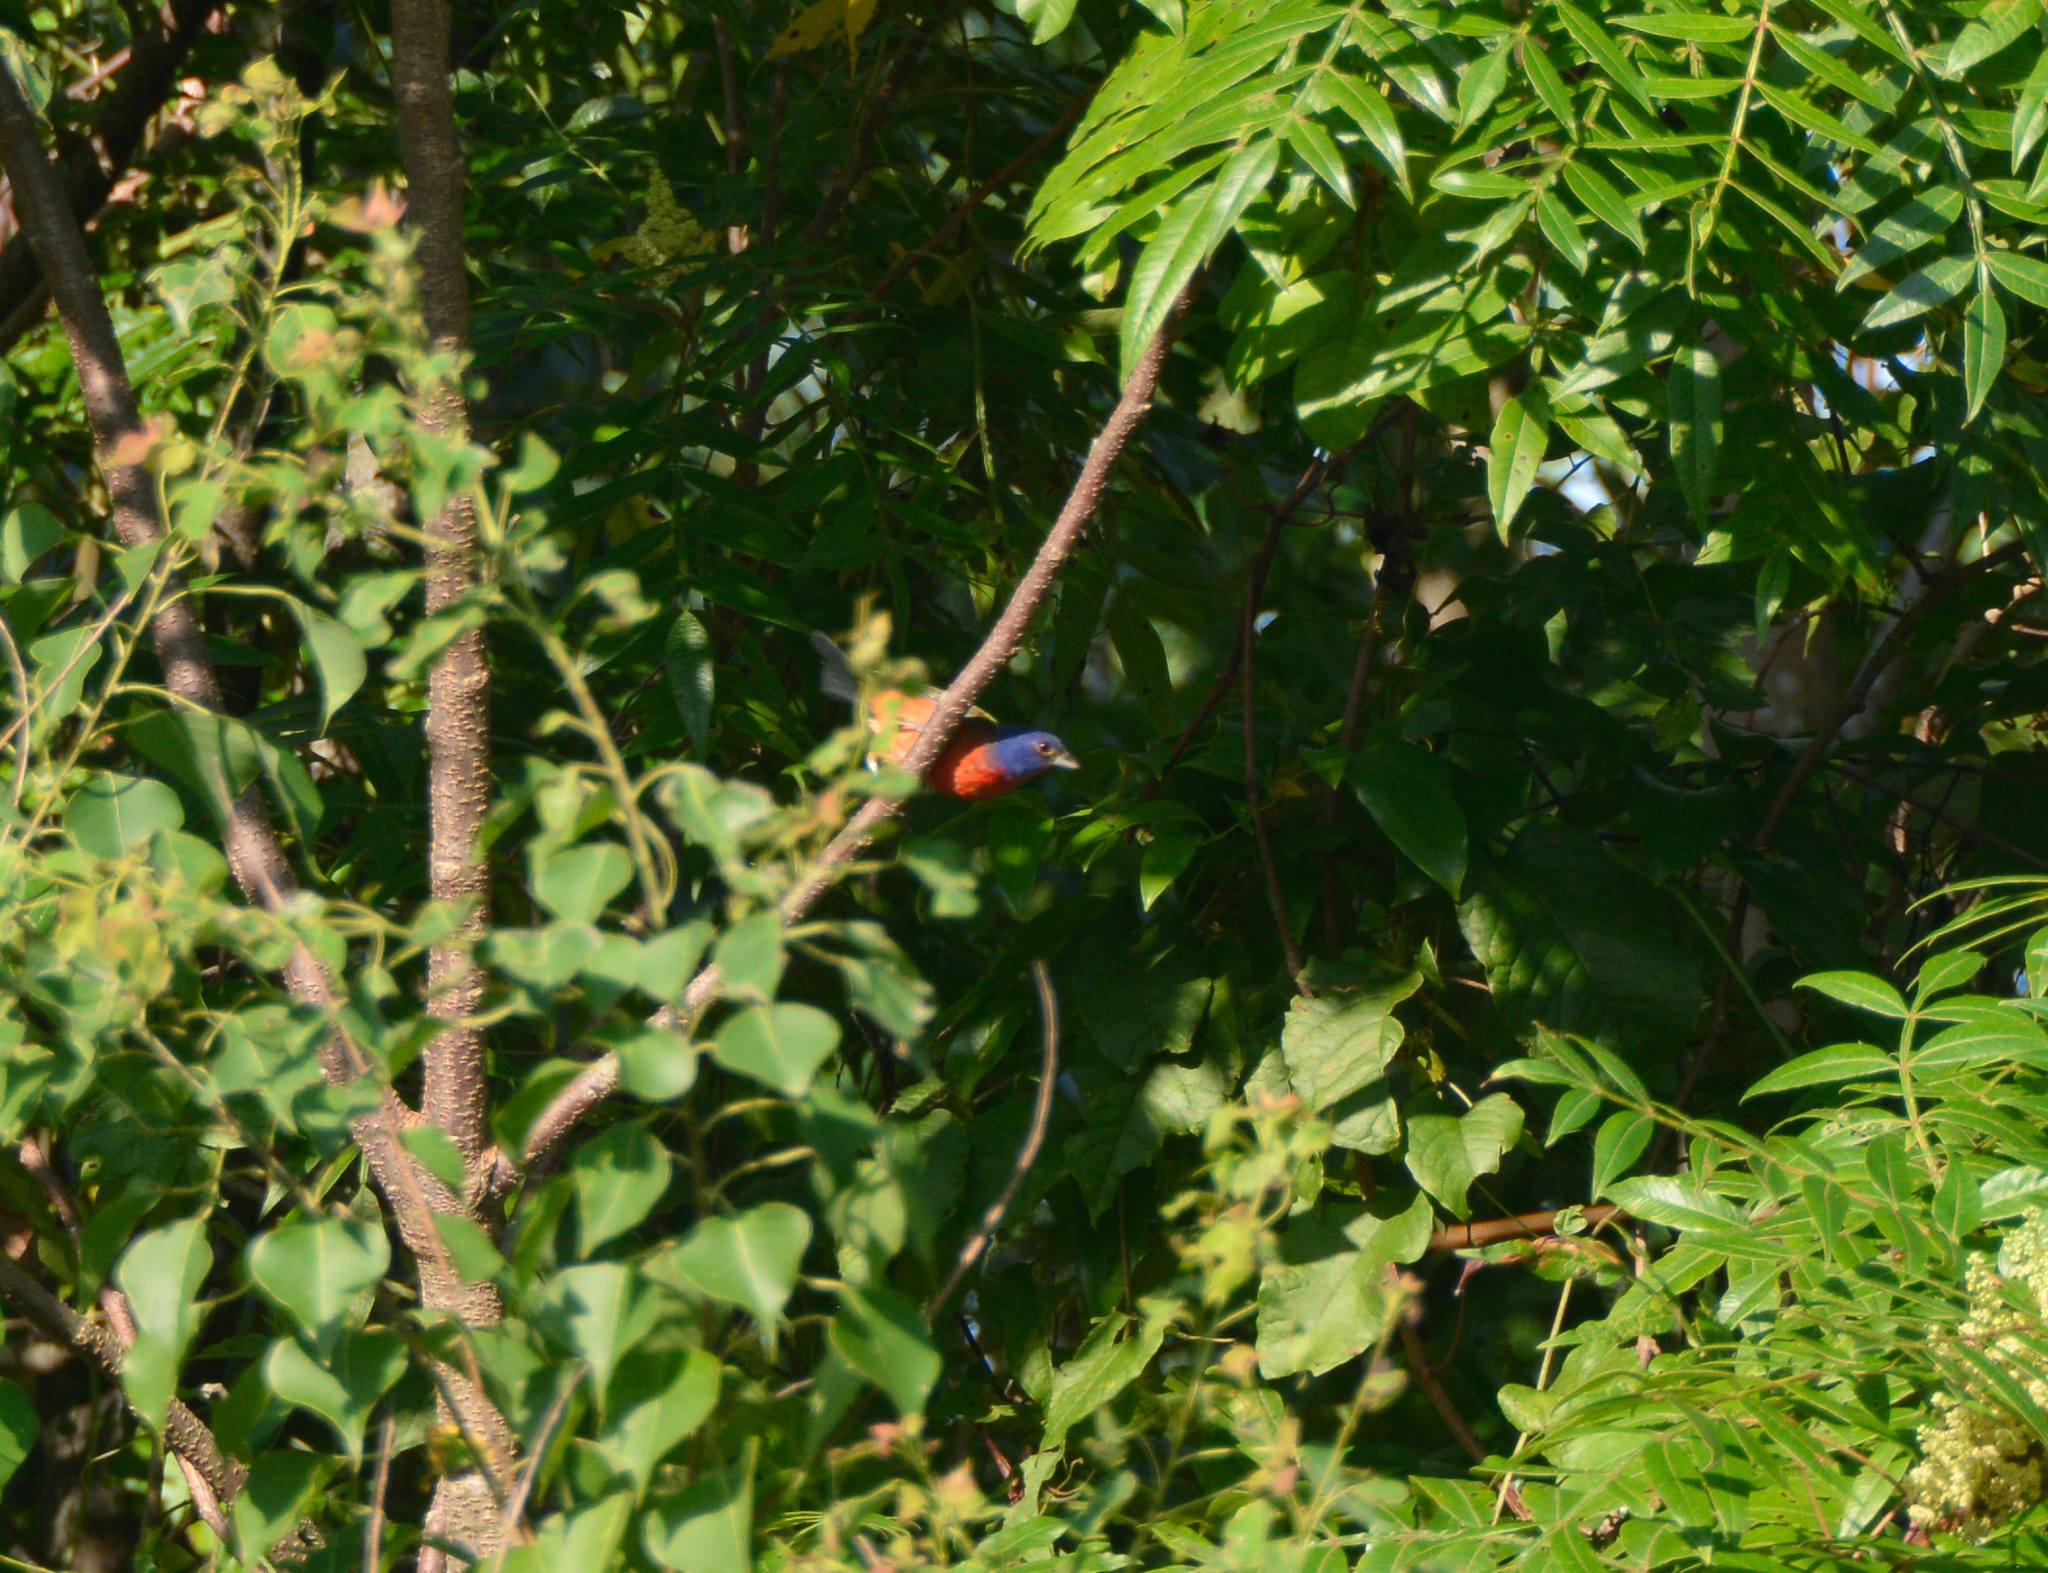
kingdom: Animalia
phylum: Chordata
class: Aves
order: Passeriformes
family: Cardinalidae
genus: Passerina
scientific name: Passerina ciris
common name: Painted bunting
